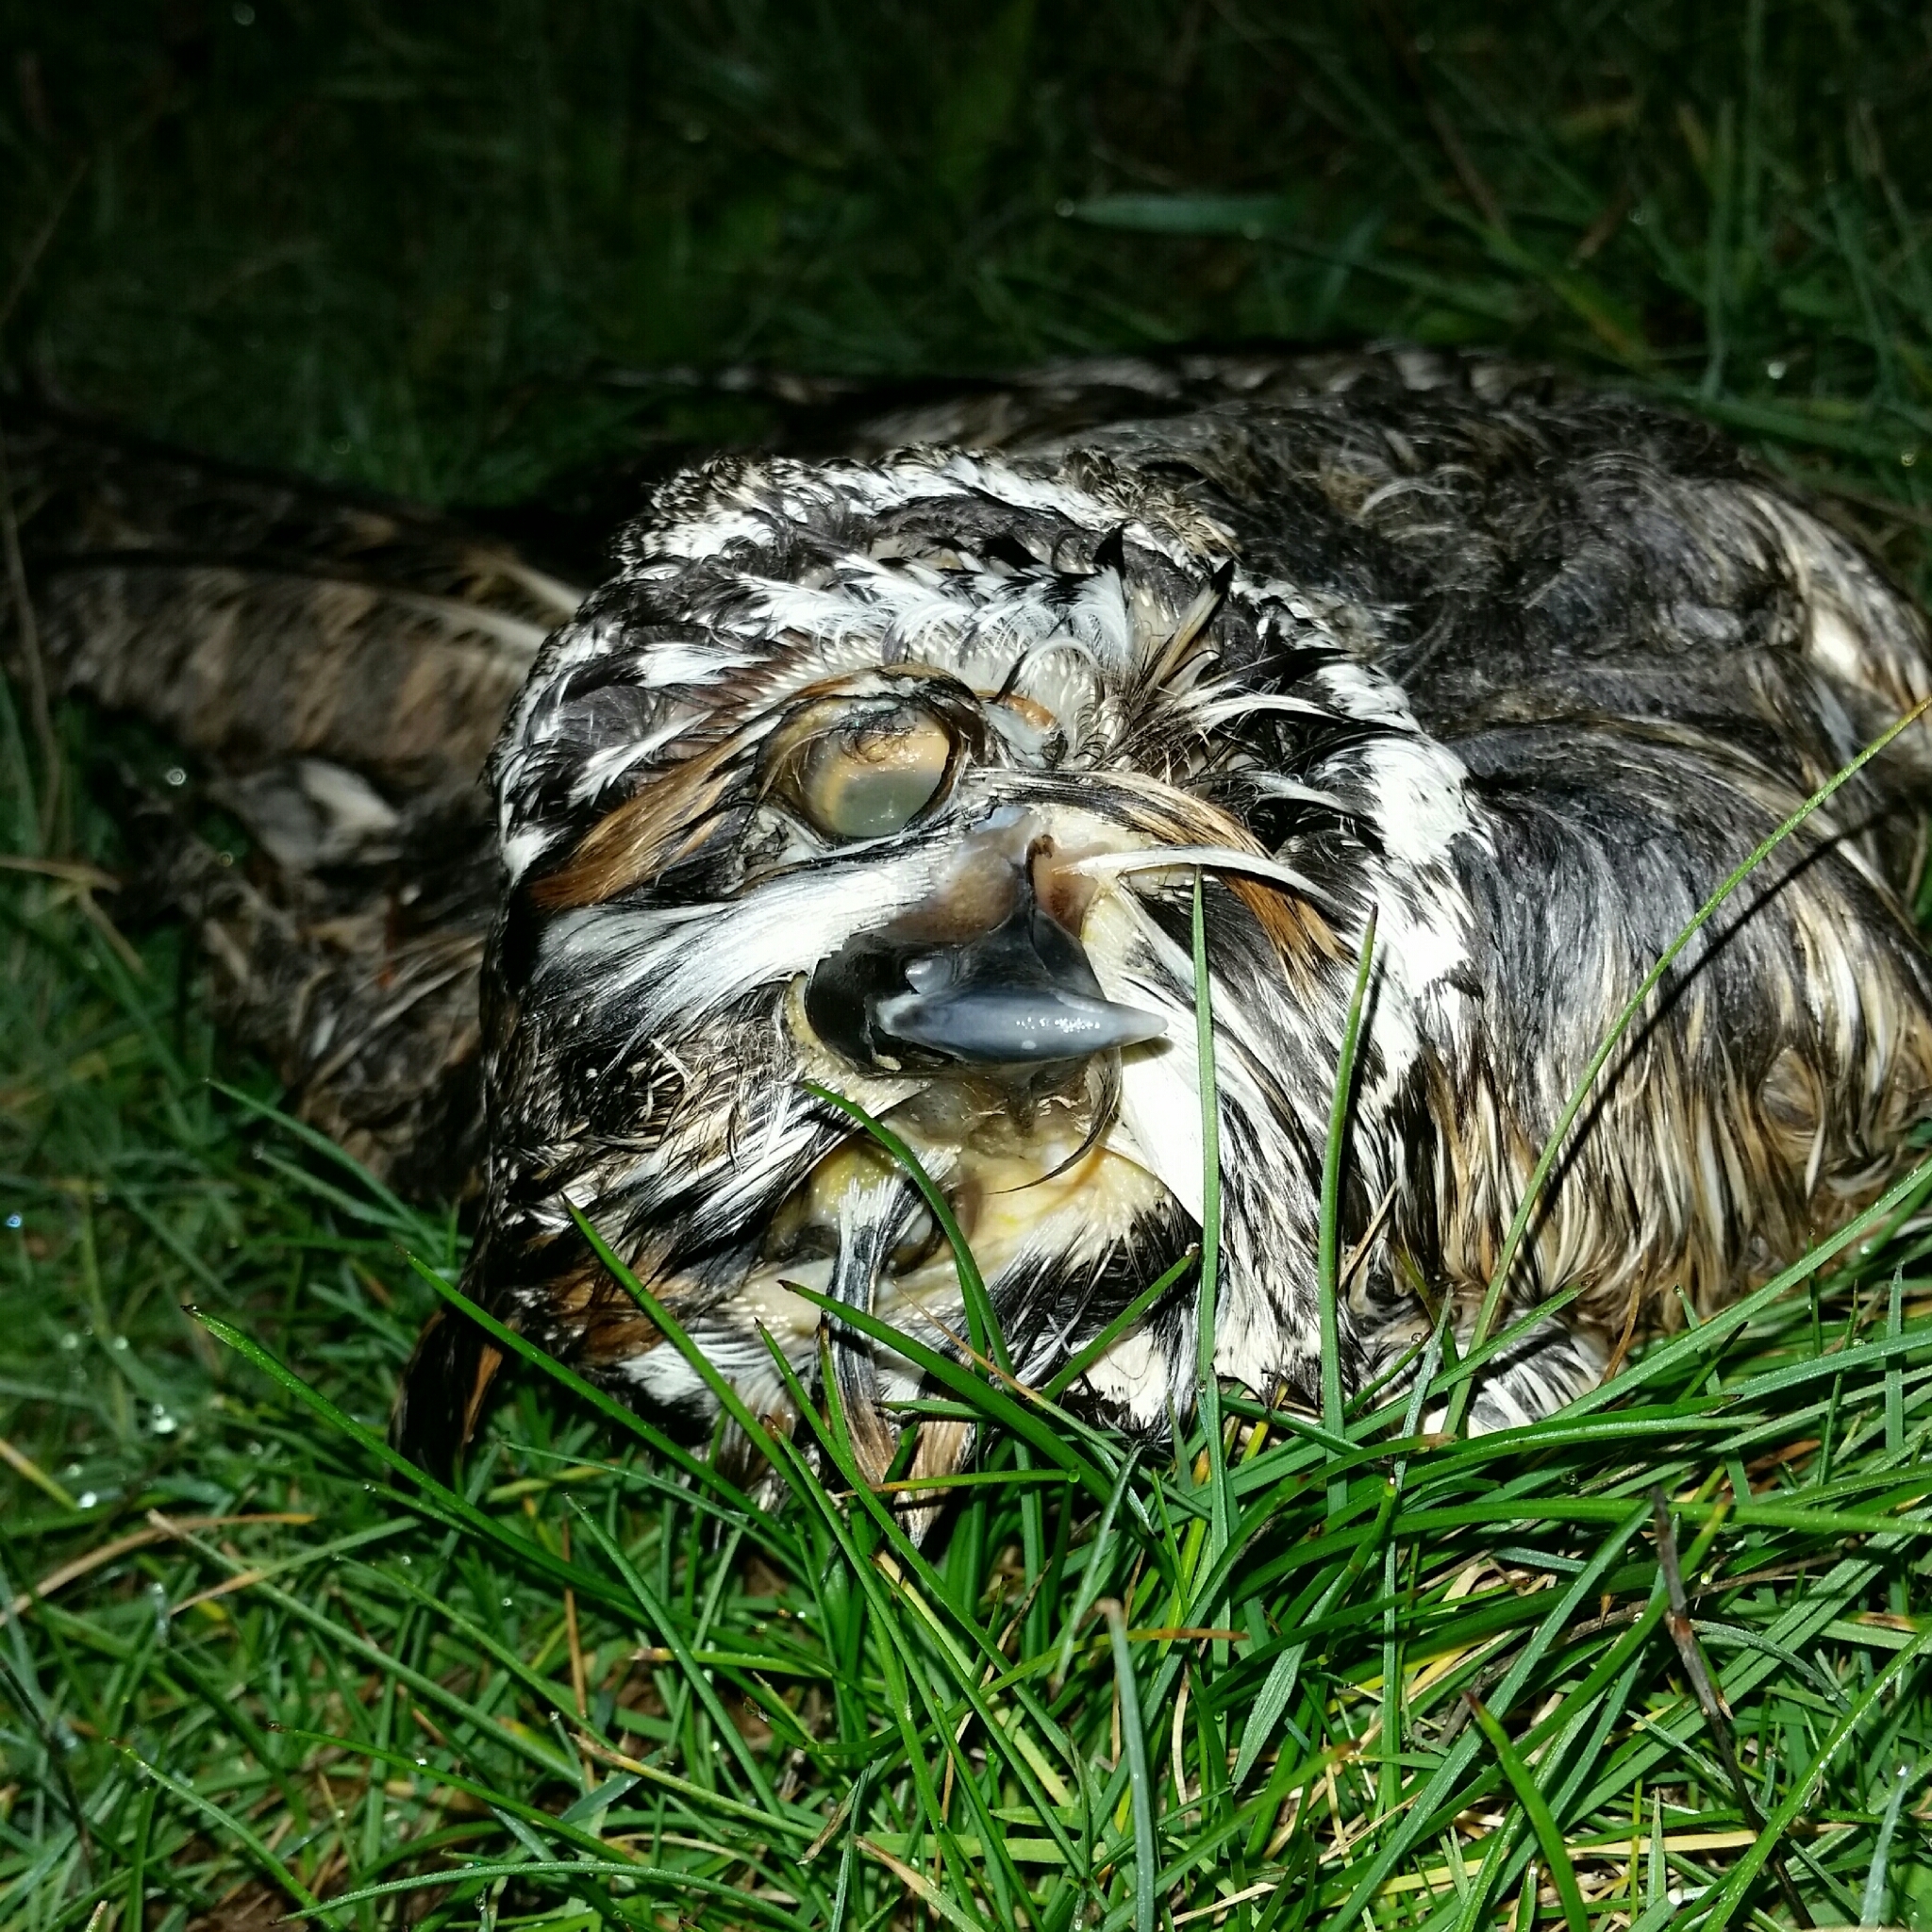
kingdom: Animalia
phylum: Chordata
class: Aves
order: Strigiformes
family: Strigidae
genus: Asio
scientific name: Asio otus
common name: Long-eared owl
